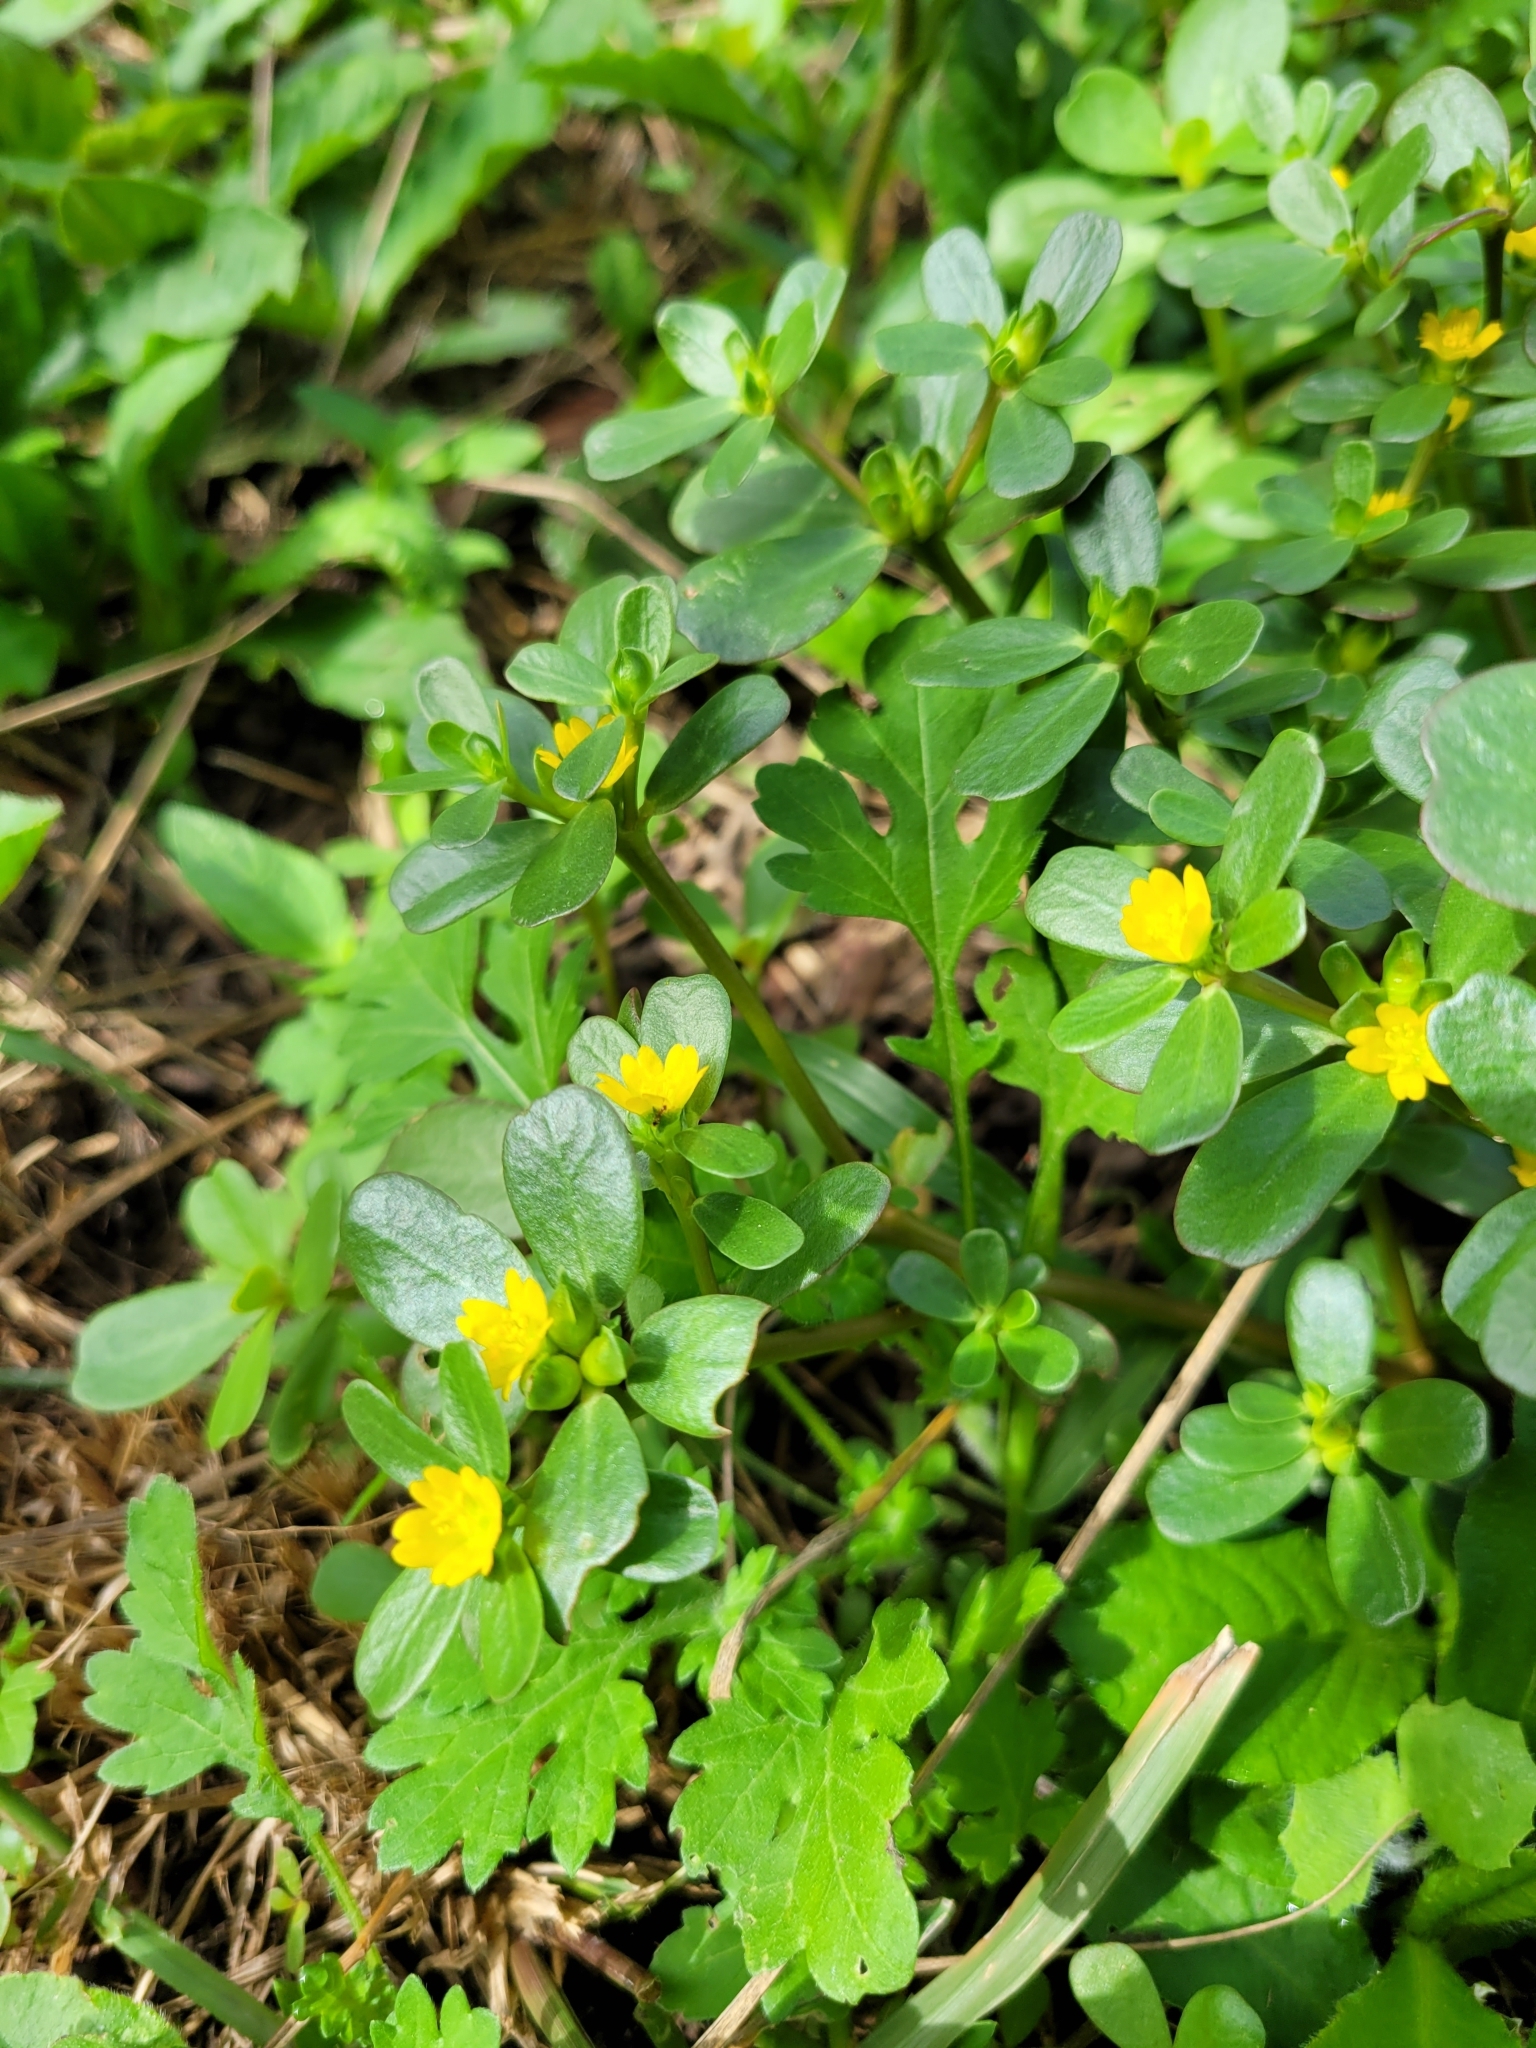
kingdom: Plantae
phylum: Tracheophyta
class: Magnoliopsida
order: Caryophyllales
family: Portulacaceae
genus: Portulaca
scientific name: Portulaca oleracea
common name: Common purslane
